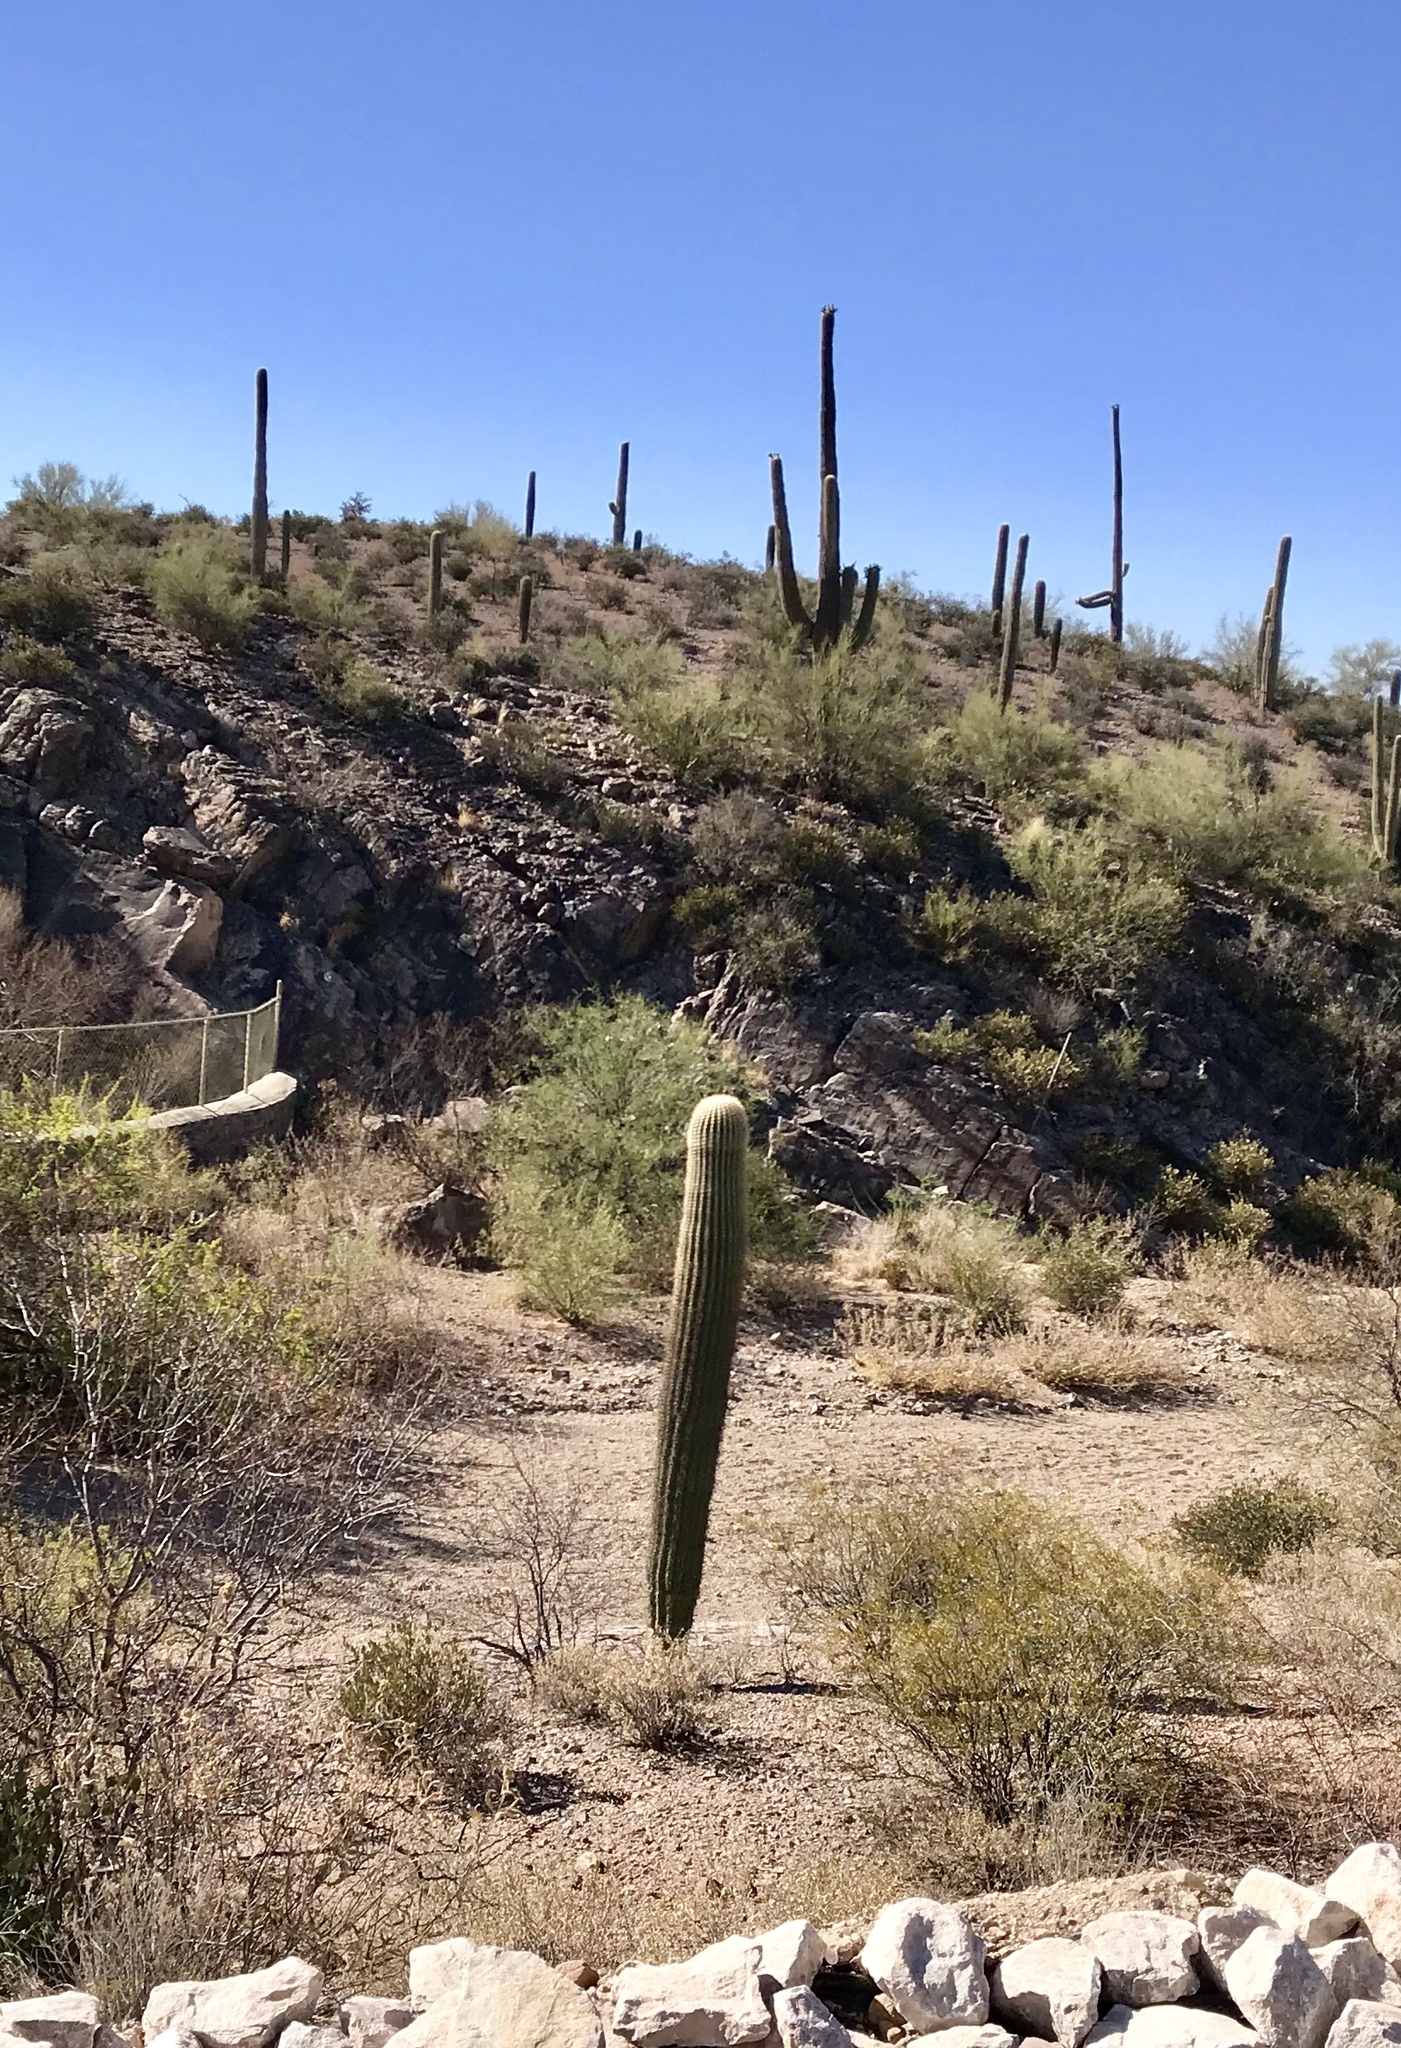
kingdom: Plantae
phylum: Tracheophyta
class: Magnoliopsida
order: Caryophyllales
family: Cactaceae
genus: Carnegiea
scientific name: Carnegiea gigantea
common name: Saguaro
